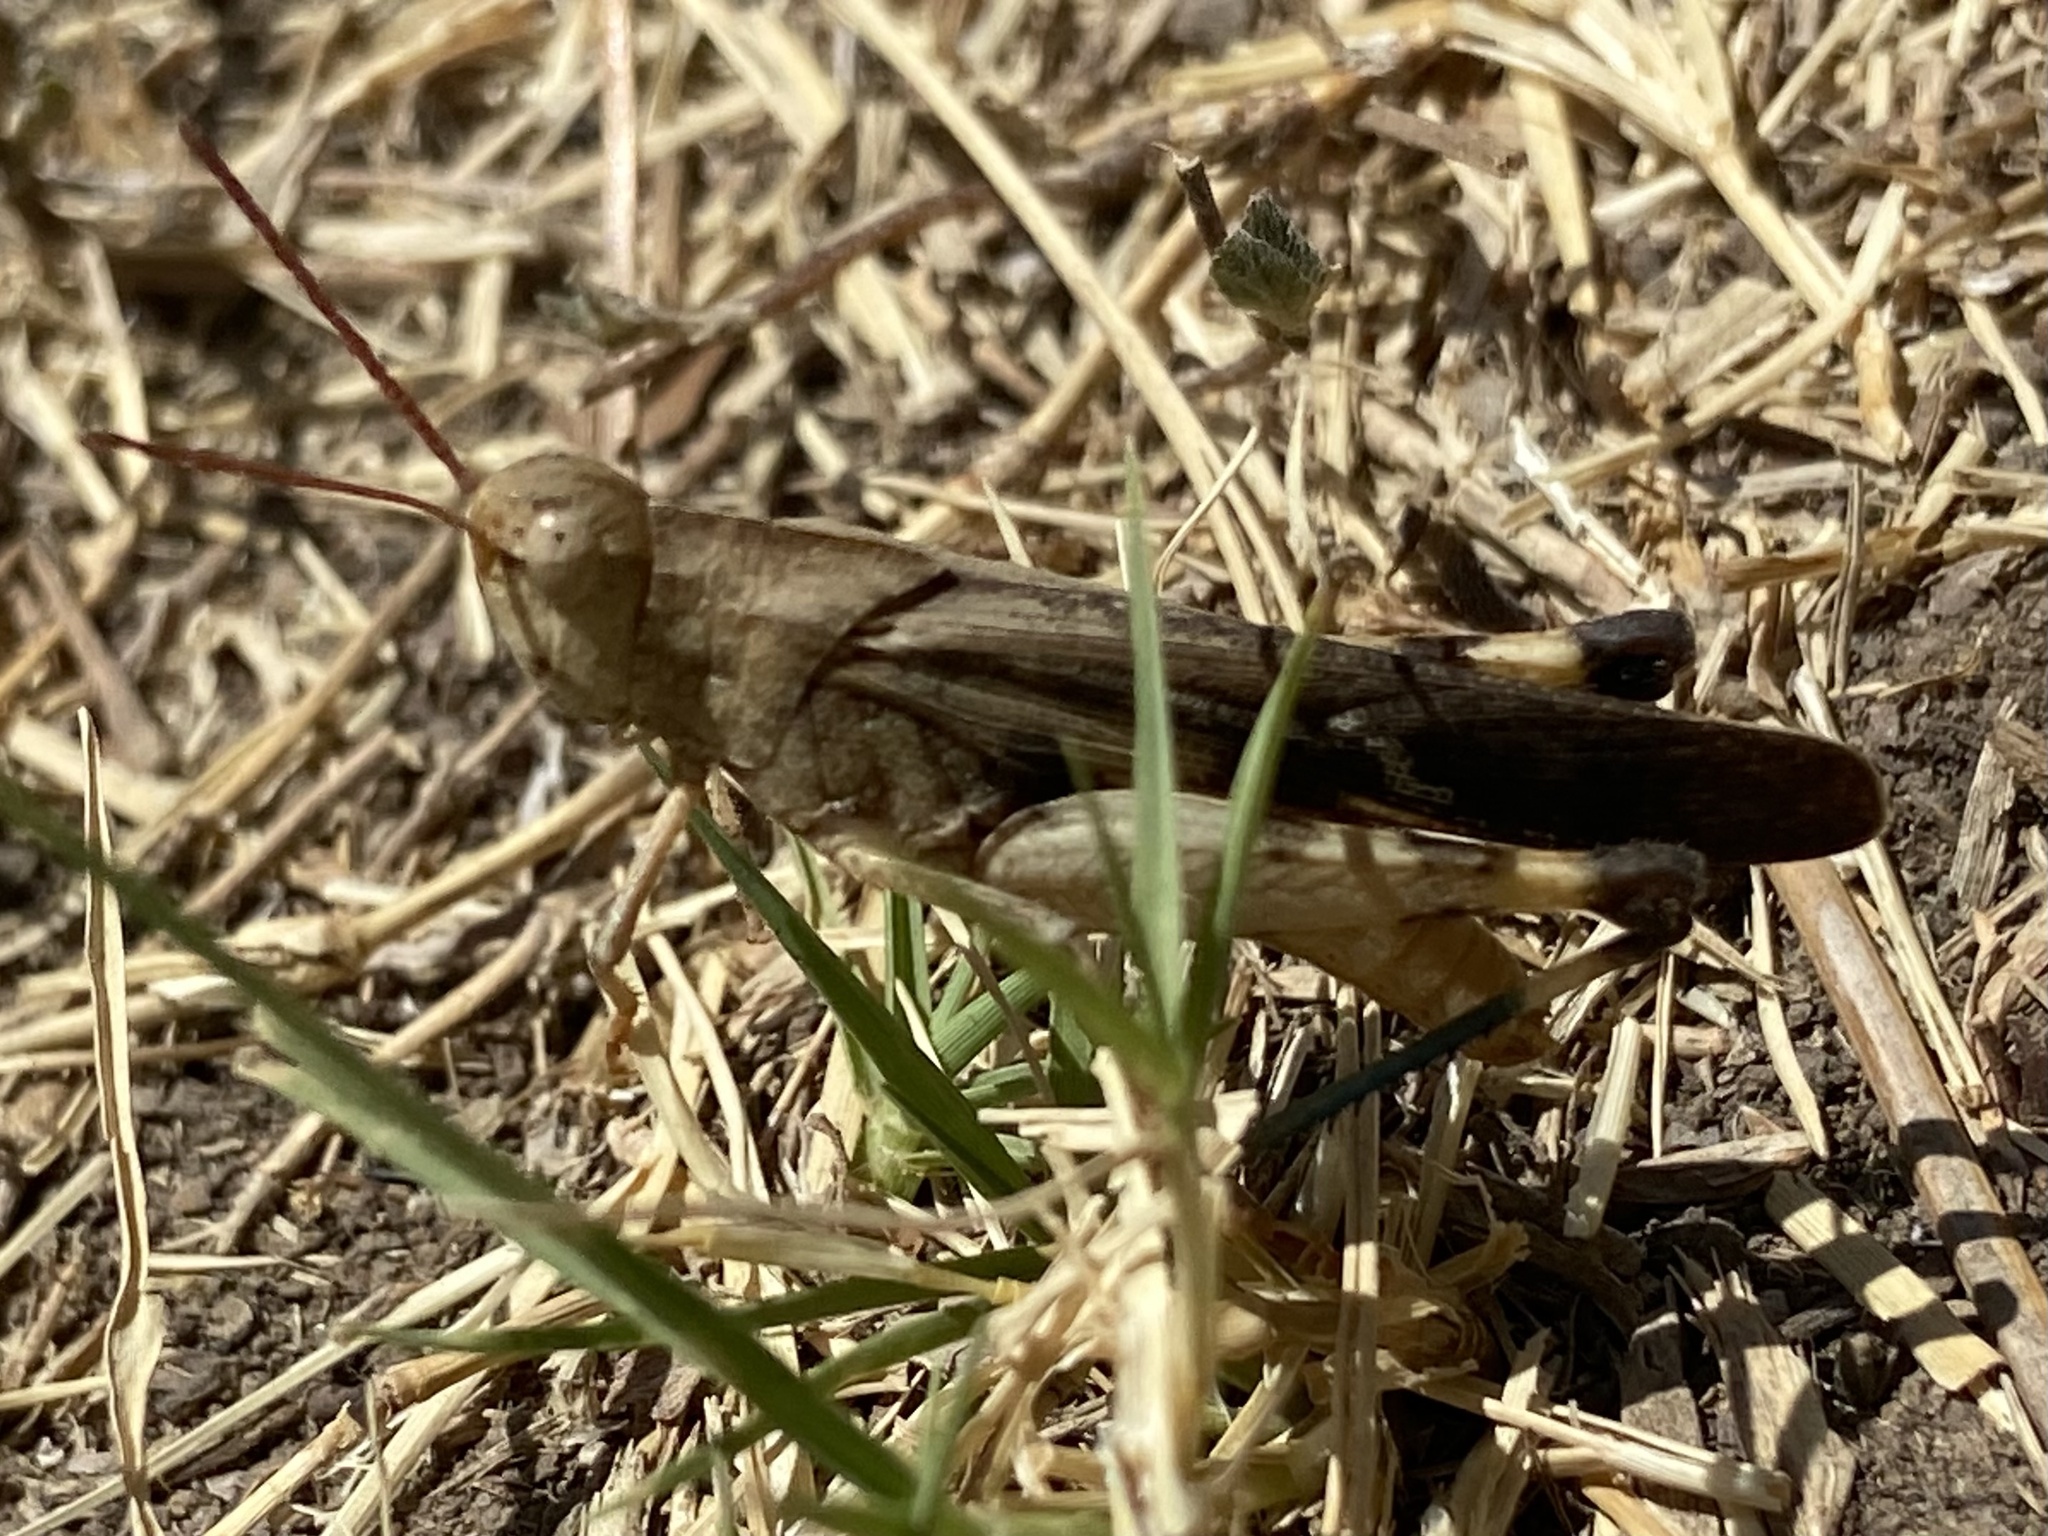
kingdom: Animalia
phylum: Arthropoda
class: Insecta
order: Orthoptera
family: Acrididae
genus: Chortophaga
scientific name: Chortophaga viridifasciata
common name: Green-striped grasshopper
